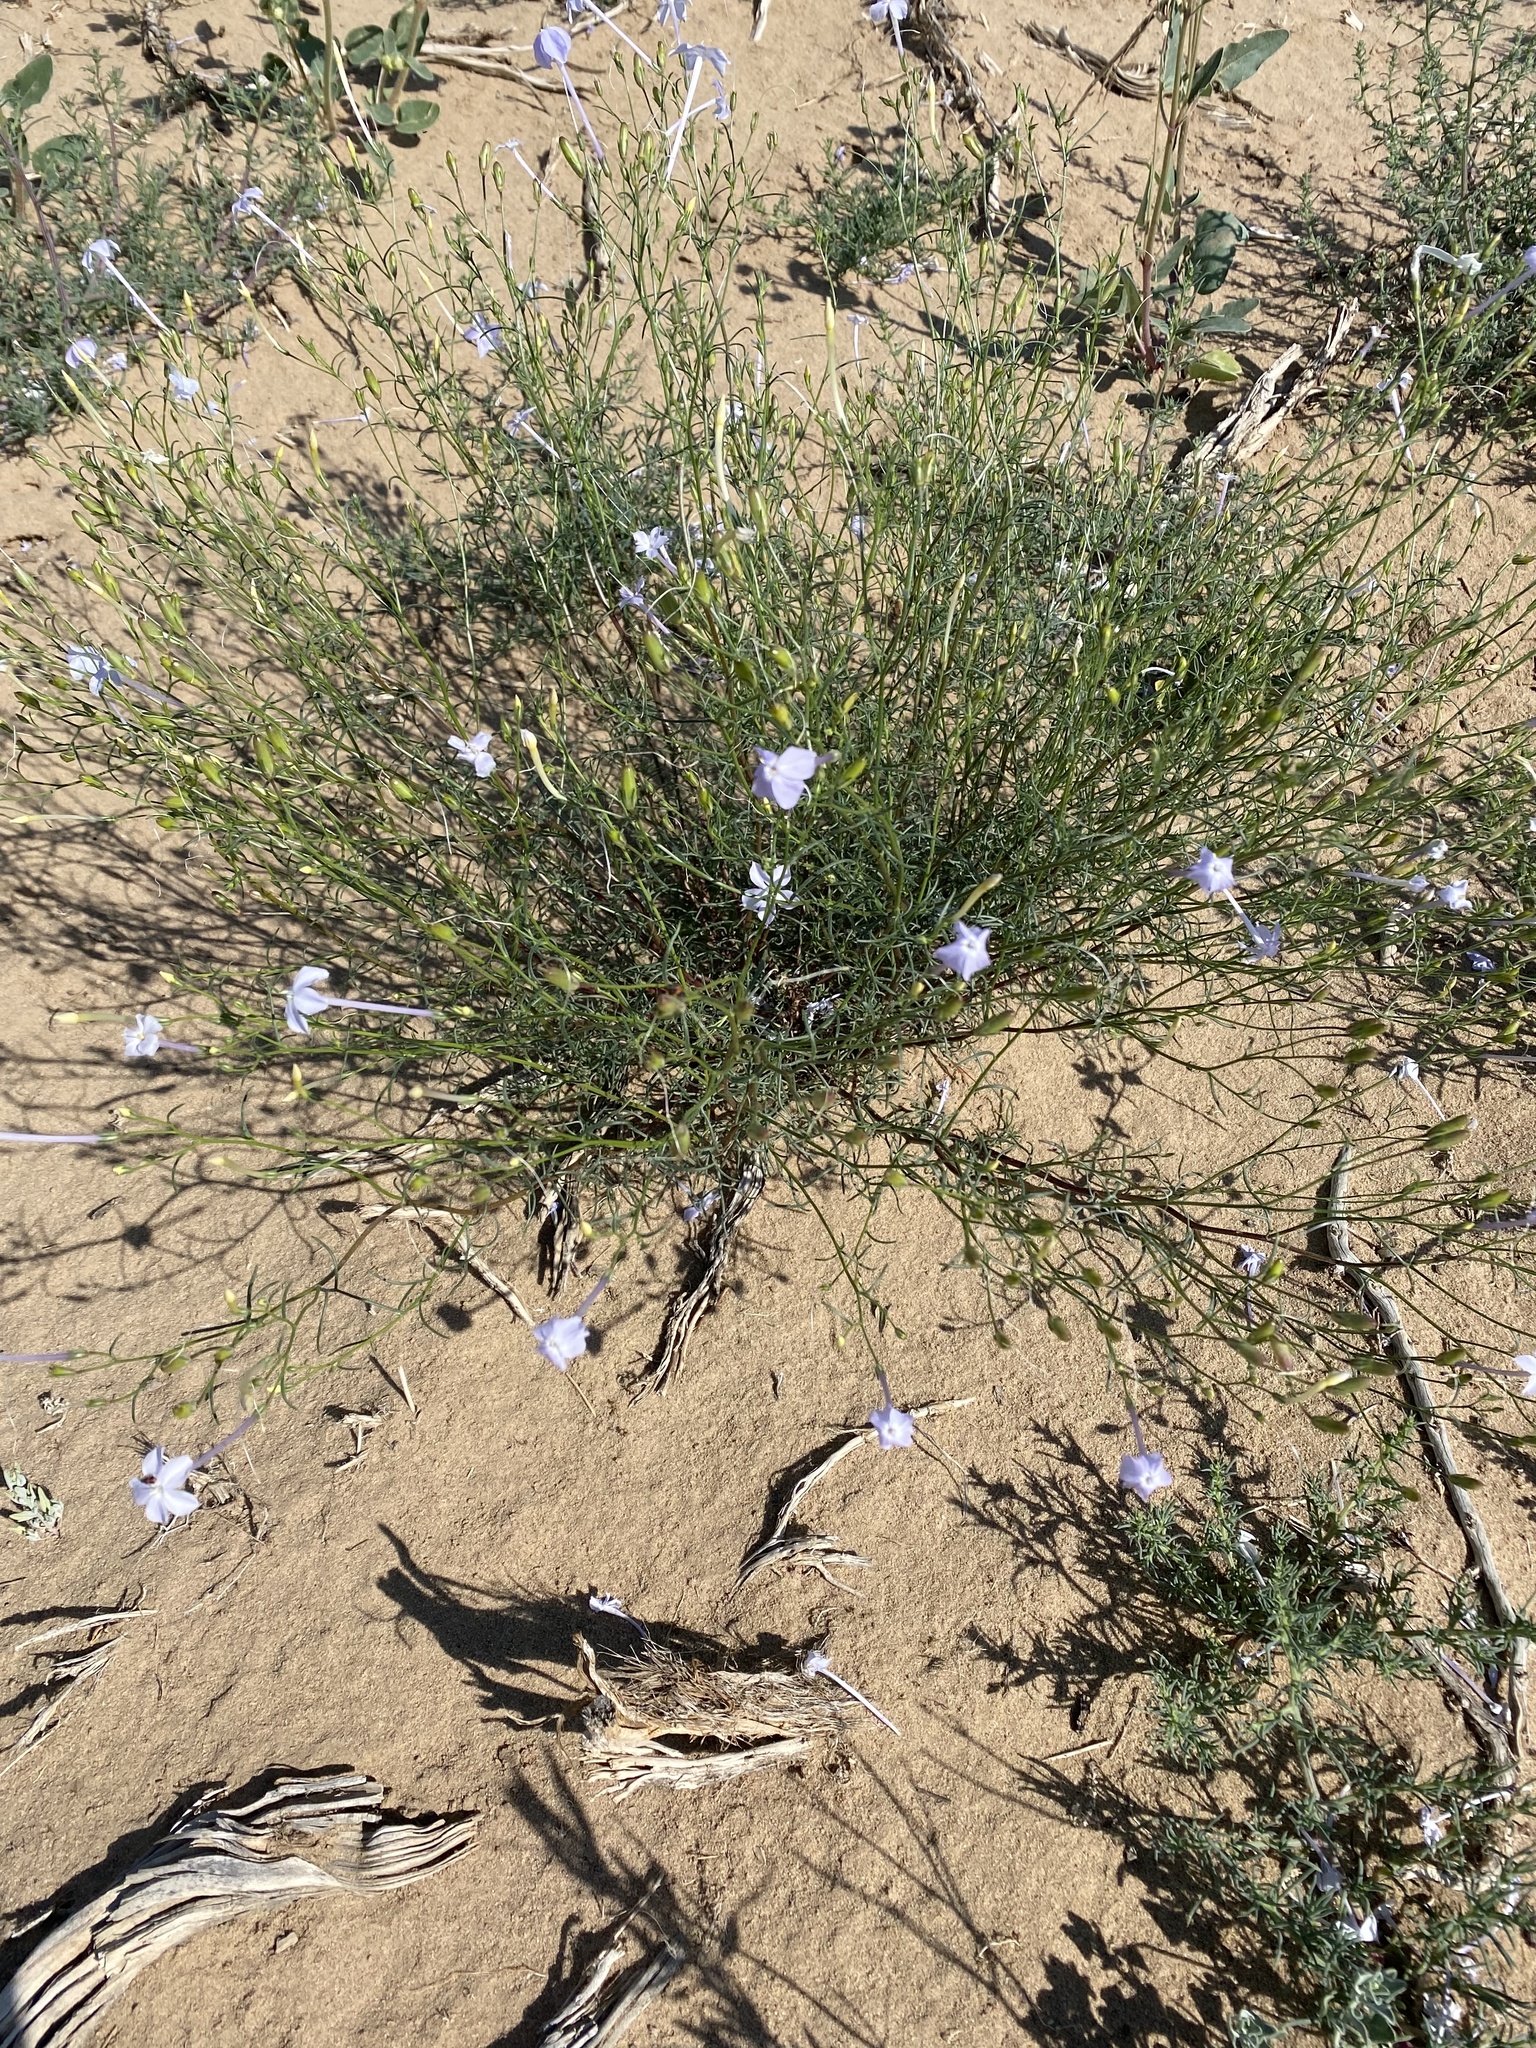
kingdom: Plantae
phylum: Tracheophyta
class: Magnoliopsida
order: Ericales
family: Polemoniaceae
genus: Ipomopsis
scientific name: Ipomopsis longiflora
